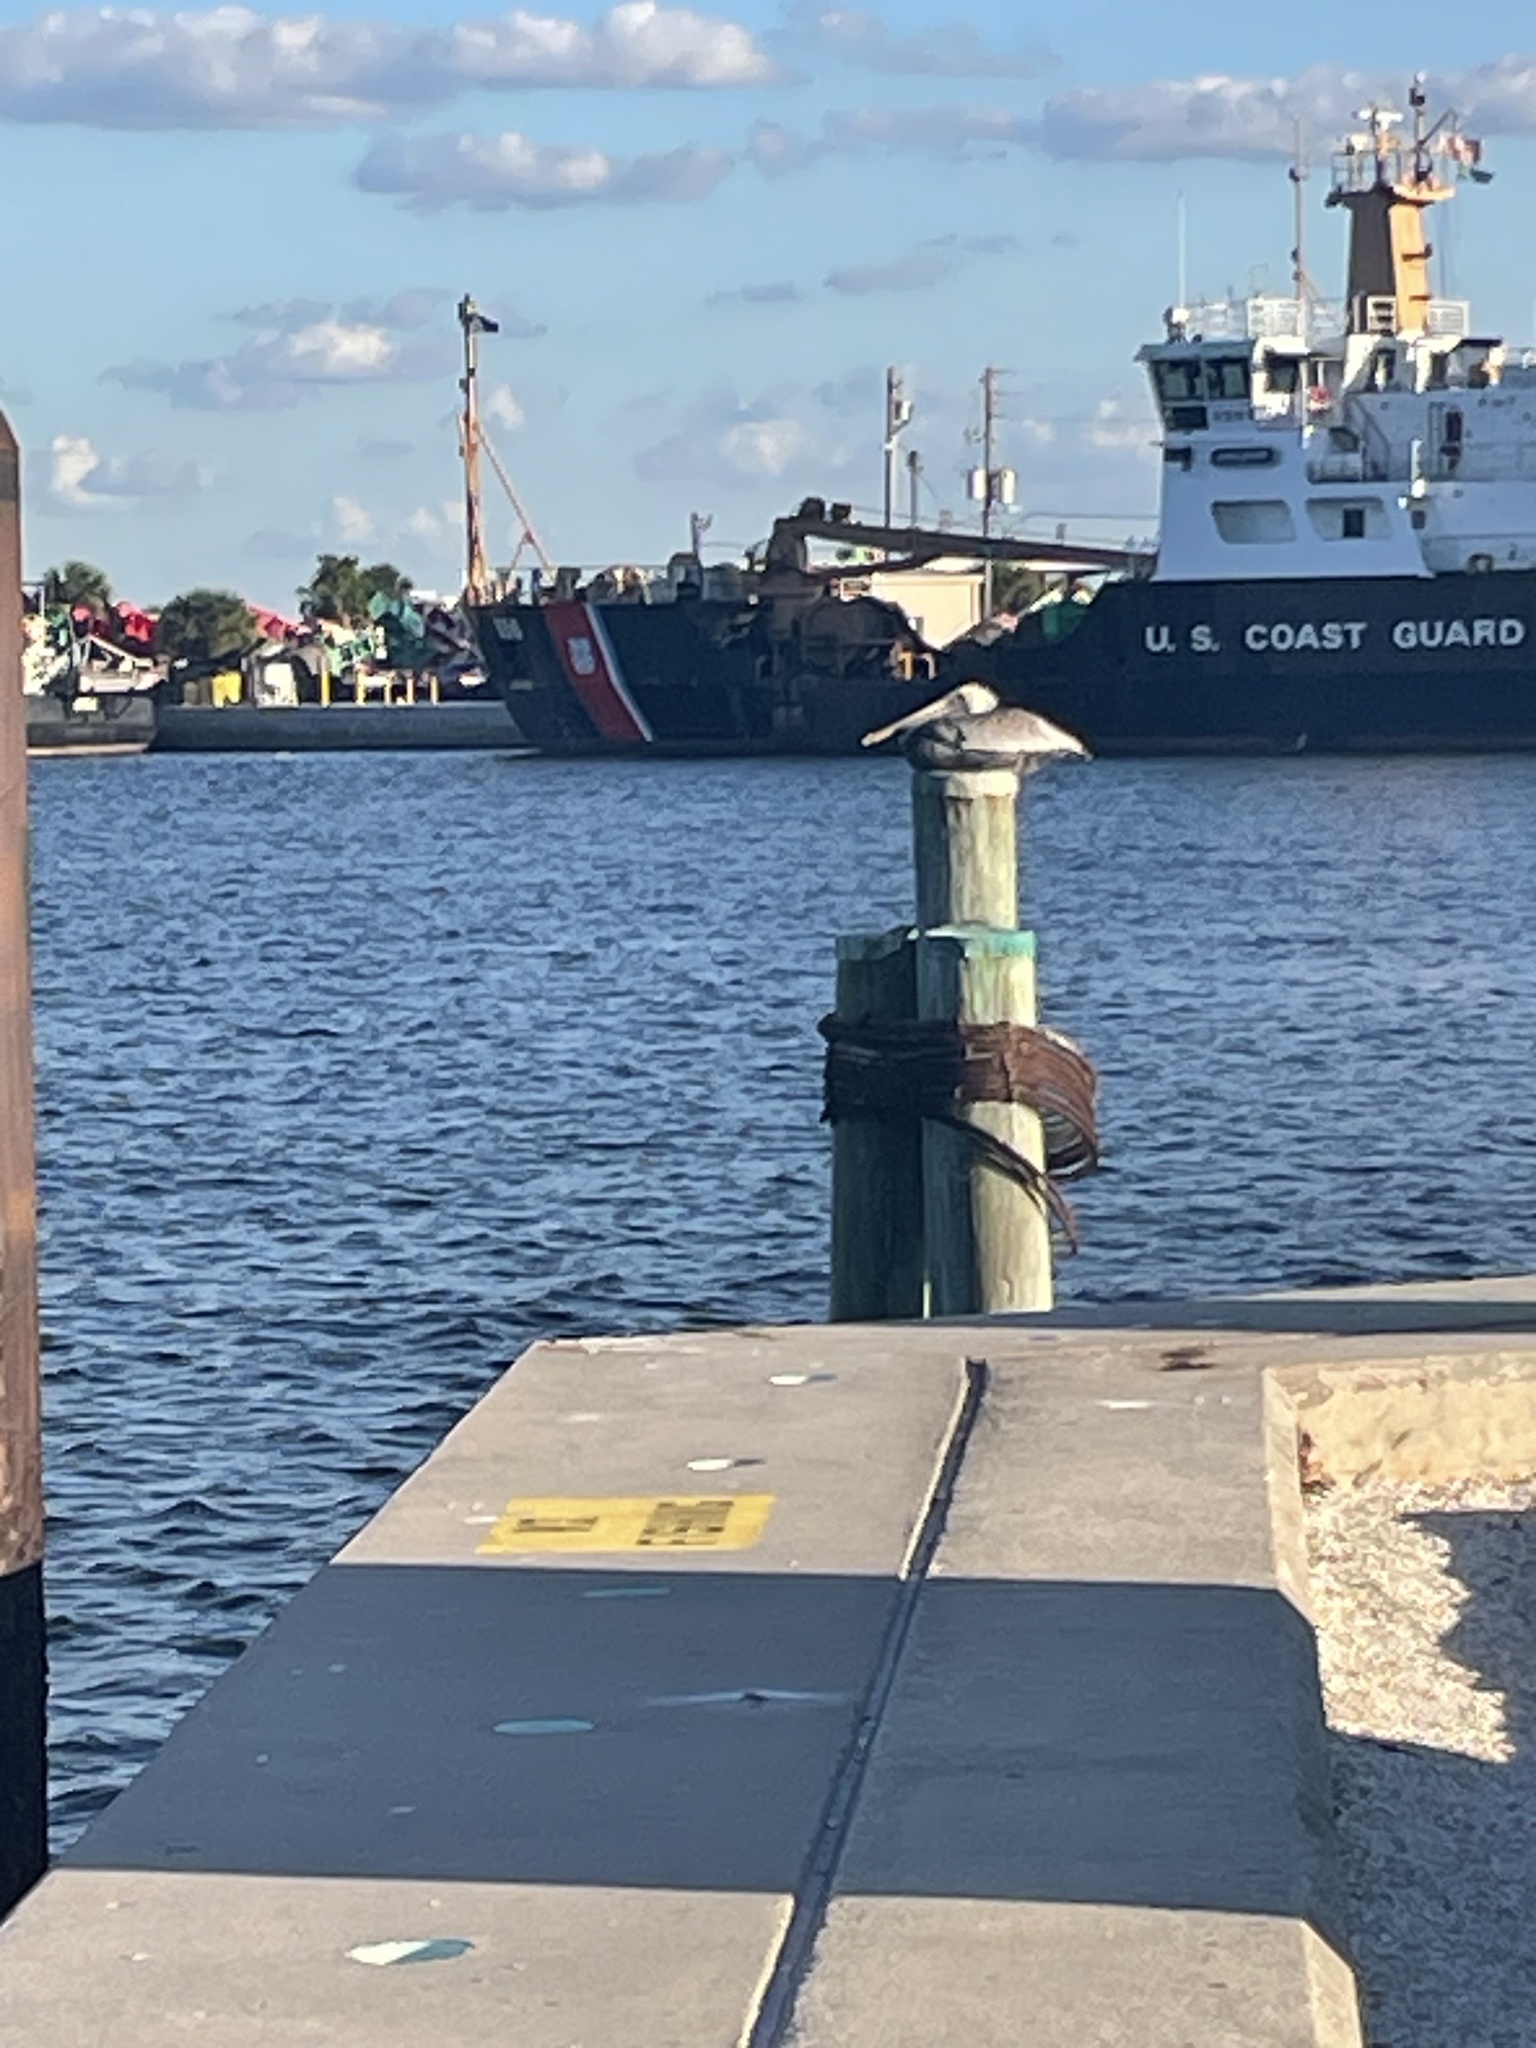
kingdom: Animalia
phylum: Chordata
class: Aves
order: Pelecaniformes
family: Pelecanidae
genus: Pelecanus
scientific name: Pelecanus occidentalis
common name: Brown pelican
